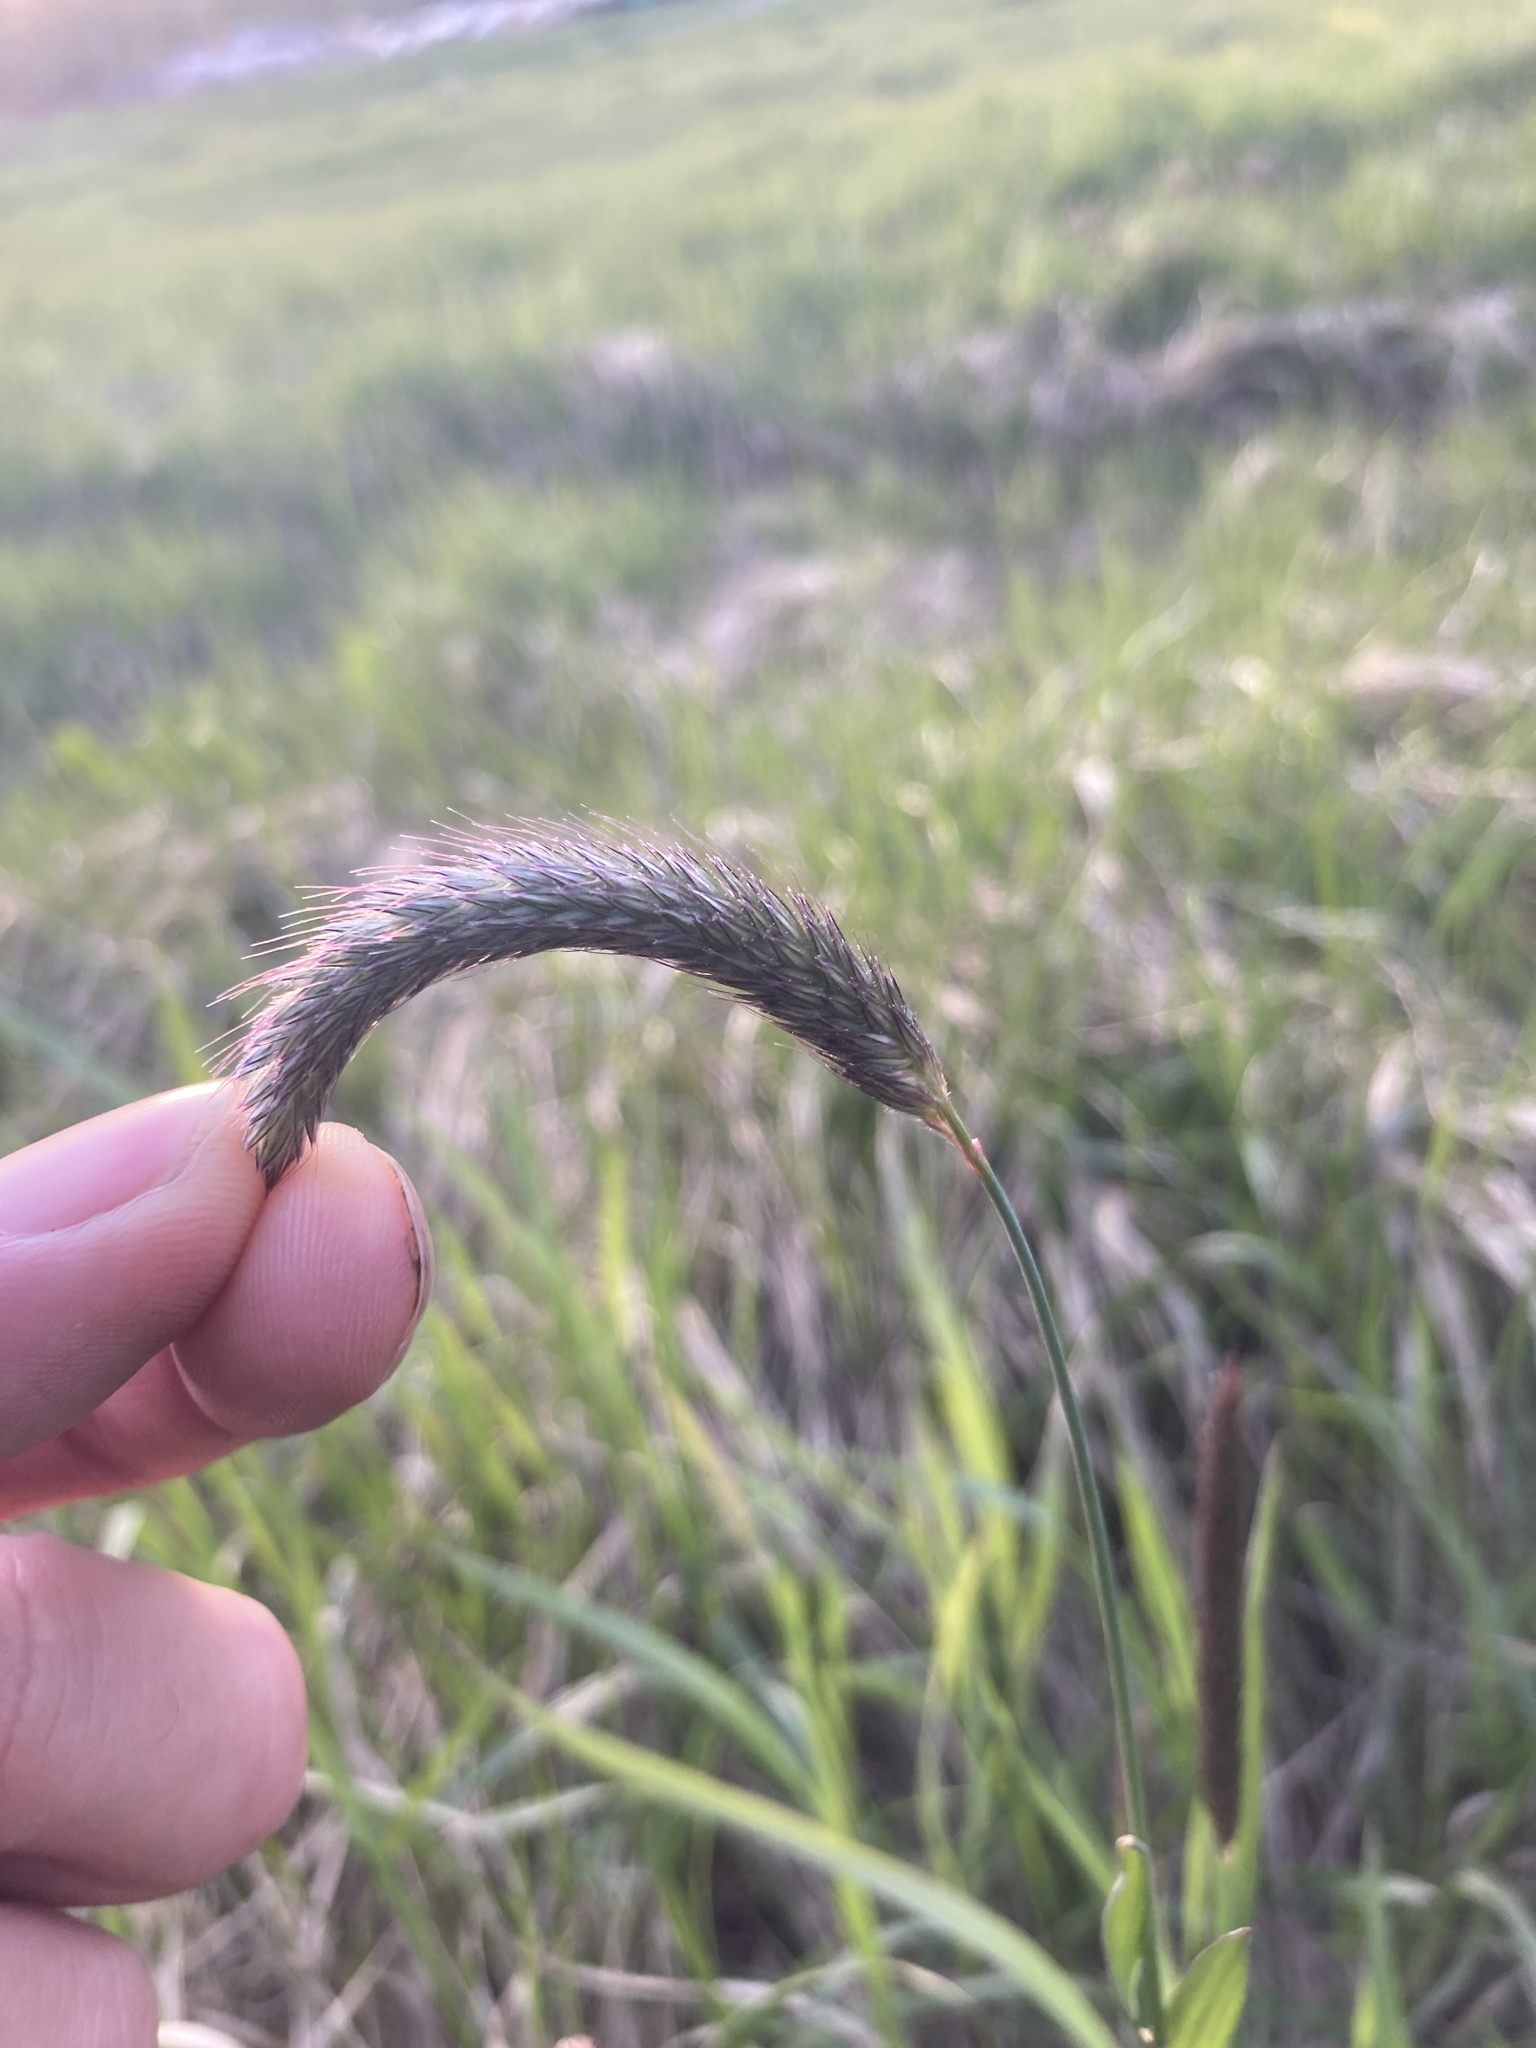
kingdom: Plantae
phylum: Tracheophyta
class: Liliopsida
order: Poales
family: Poaceae
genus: Alopecurus
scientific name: Alopecurus pratensis
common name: Meadow foxtail
